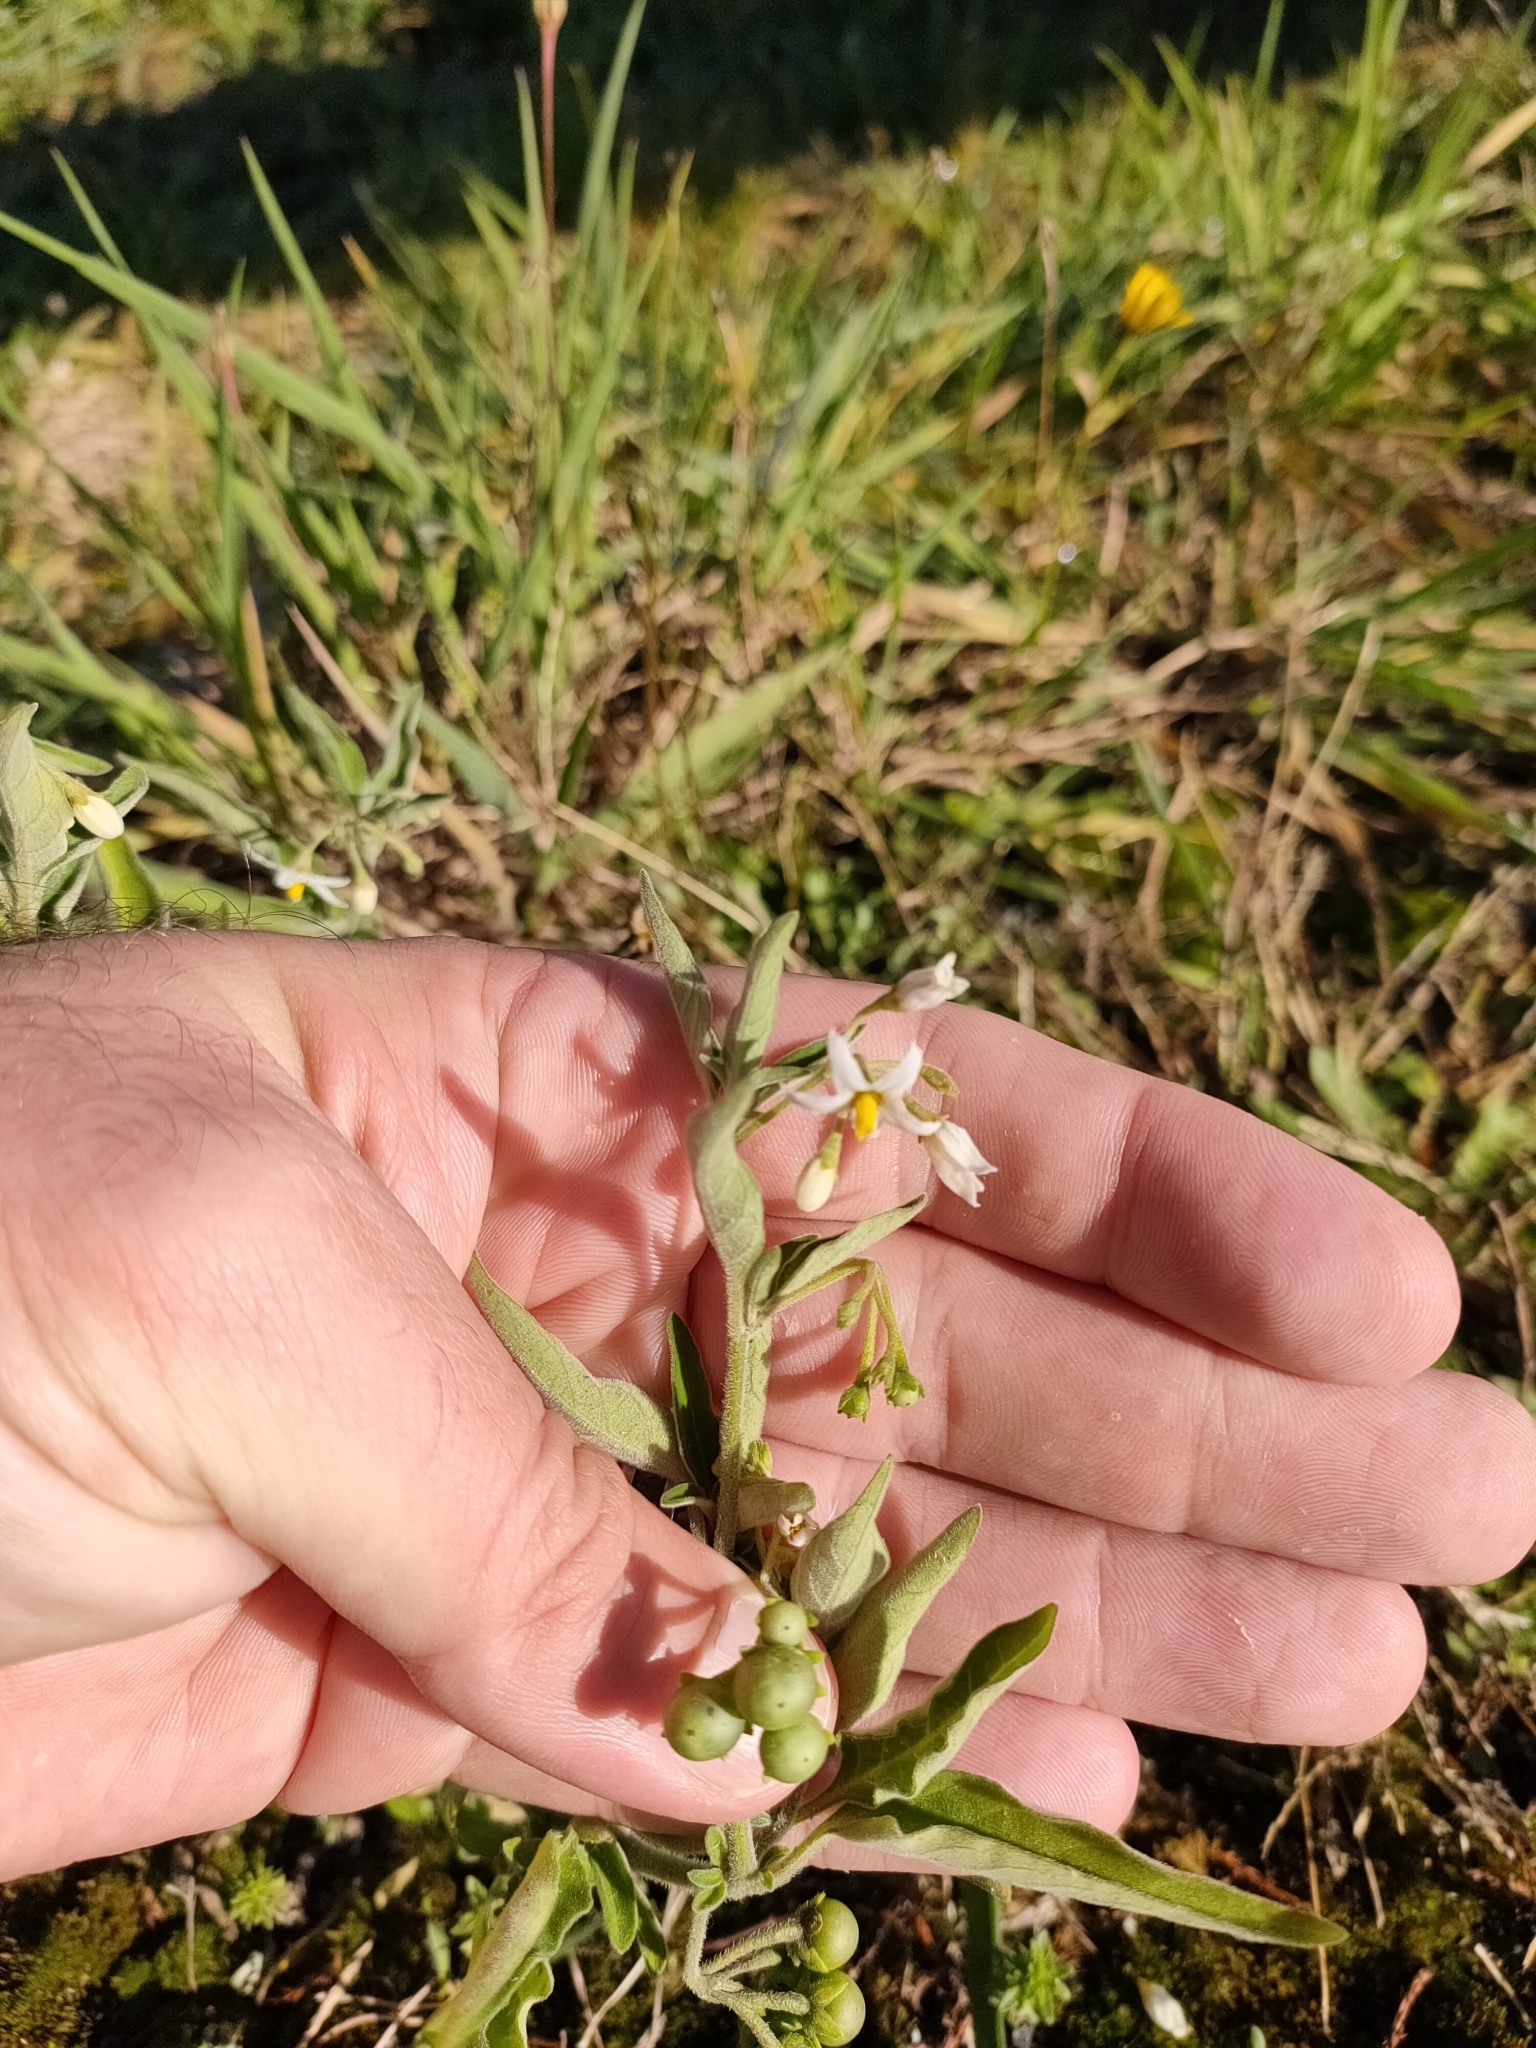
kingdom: Plantae
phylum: Tracheophyta
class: Magnoliopsida
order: Solanales
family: Solanaceae
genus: Solanum
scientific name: Solanum chenopodioides
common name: Tall nightshade
